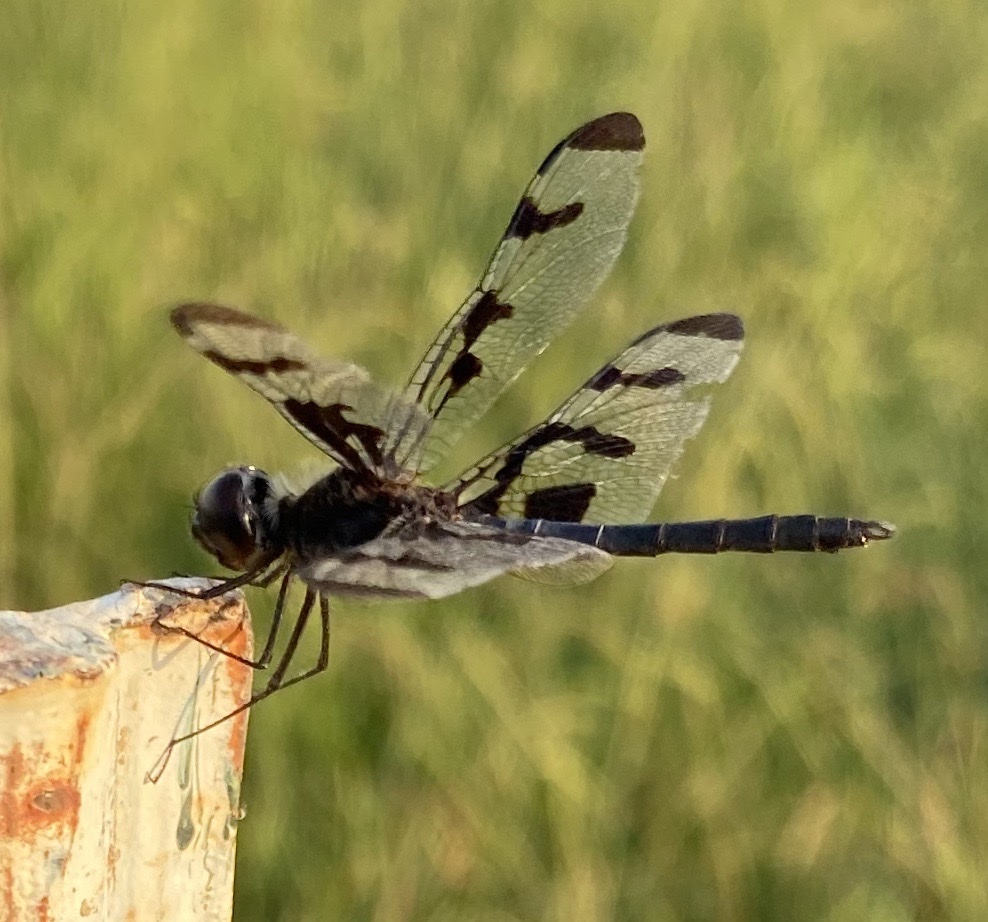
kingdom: Animalia
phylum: Arthropoda
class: Insecta
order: Odonata
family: Libellulidae
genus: Celithemis
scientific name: Celithemis fasciata
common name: Banded pennant
